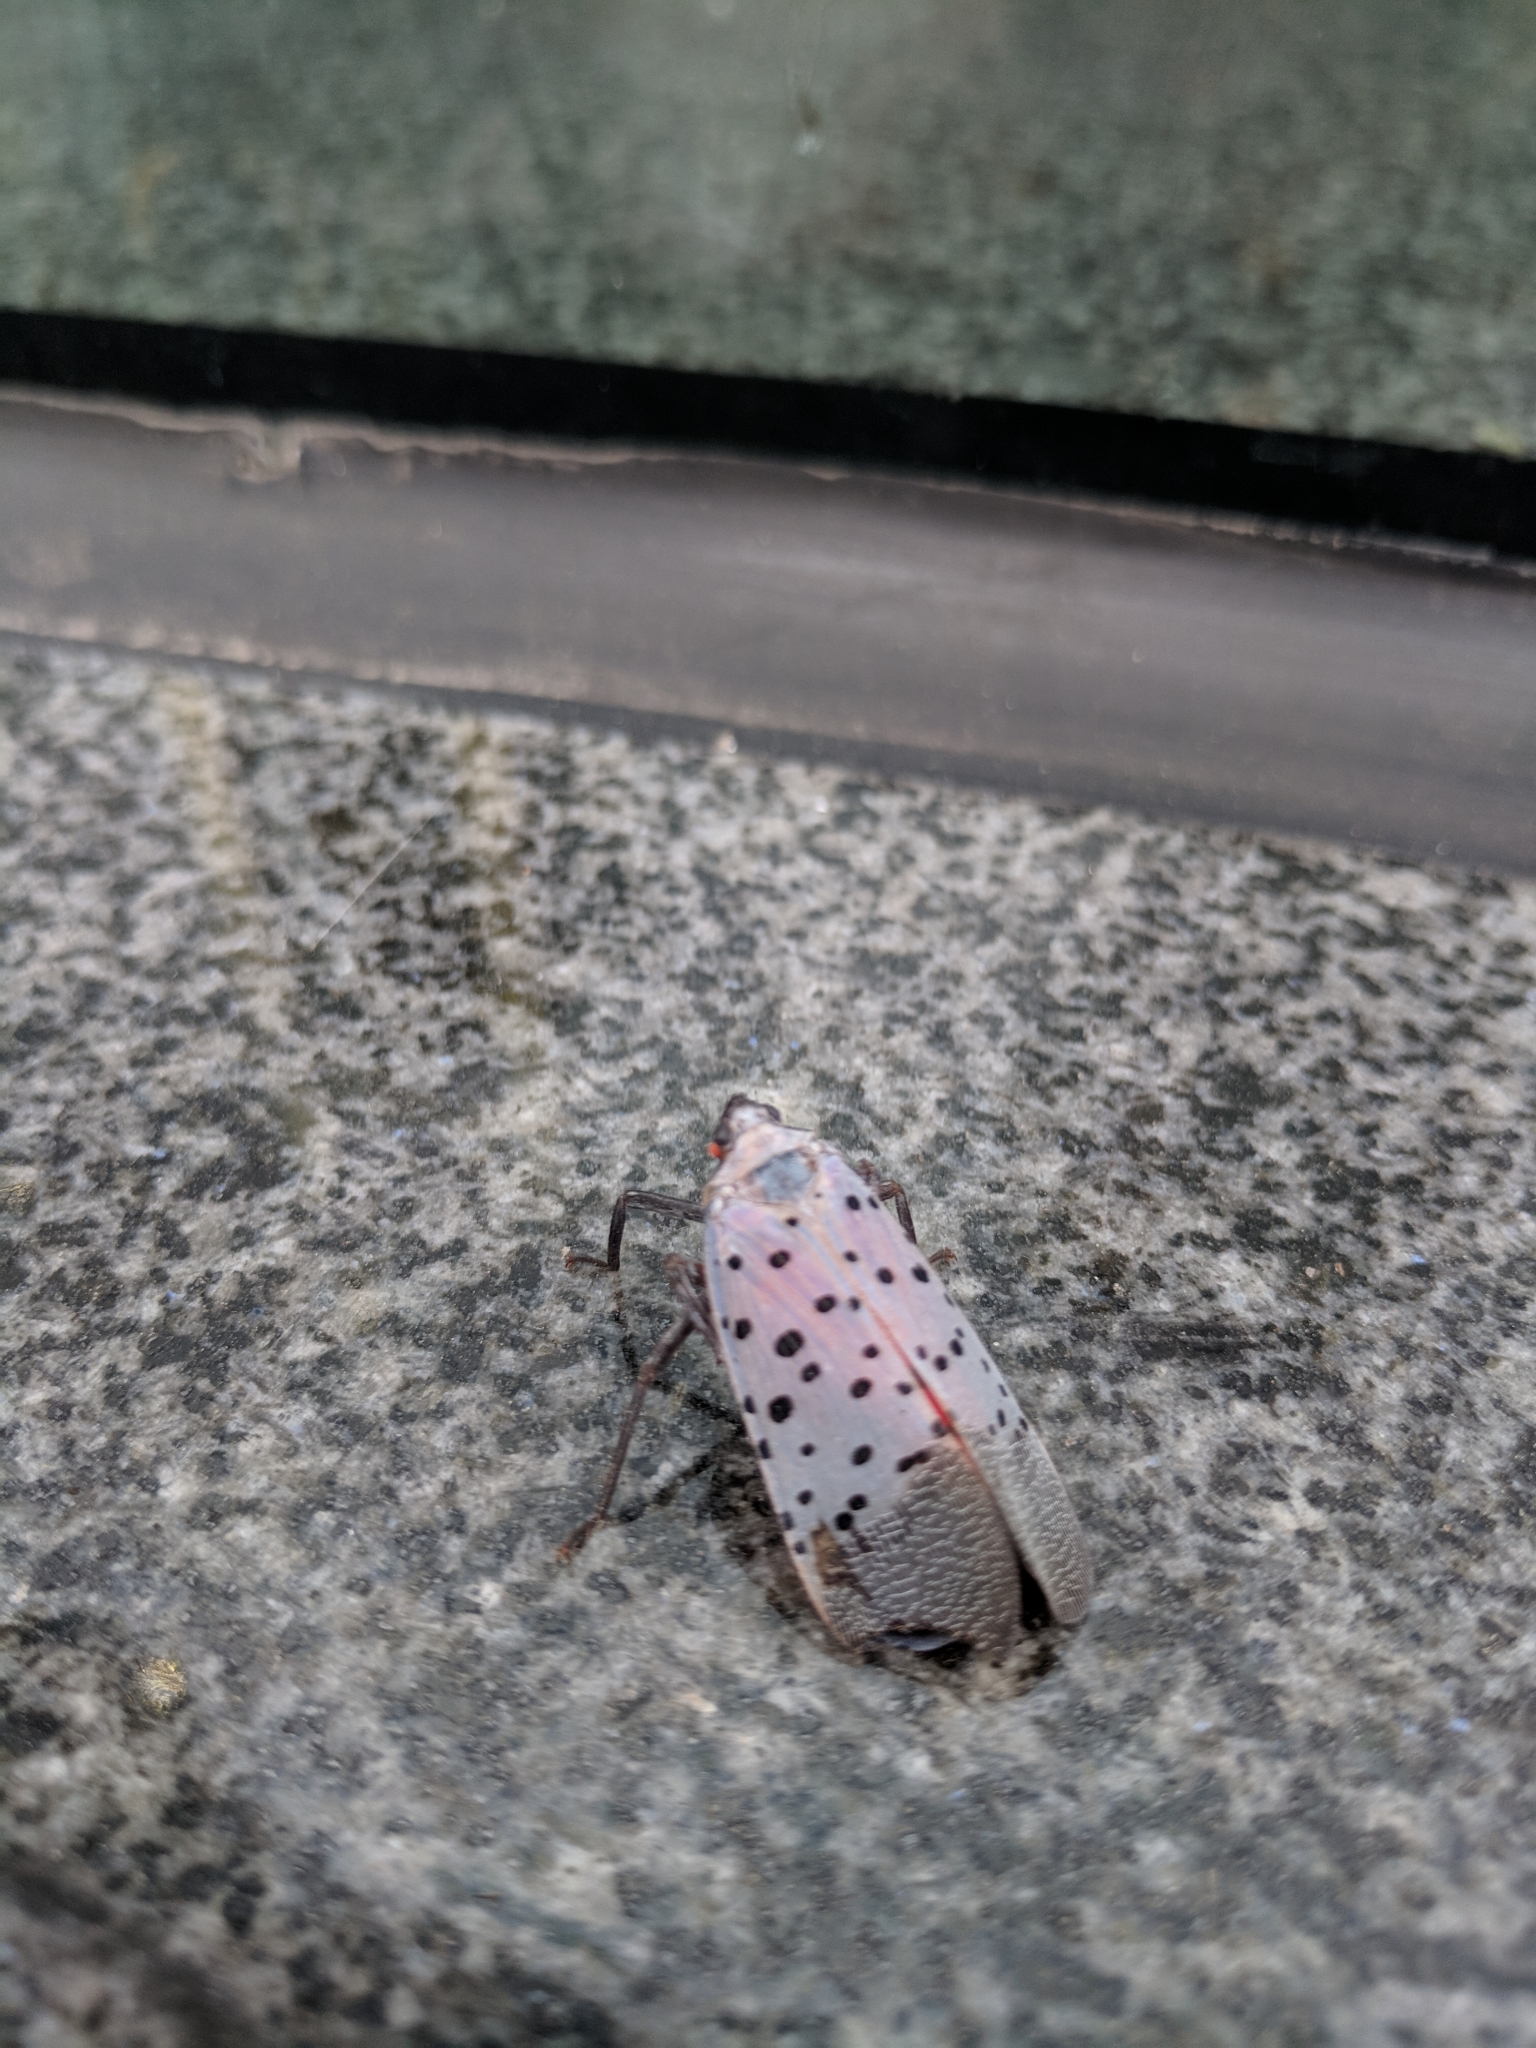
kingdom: Animalia
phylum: Arthropoda
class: Insecta
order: Hemiptera
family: Fulgoridae
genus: Lycorma
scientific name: Lycorma delicatula
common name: Spotted lanternfly
